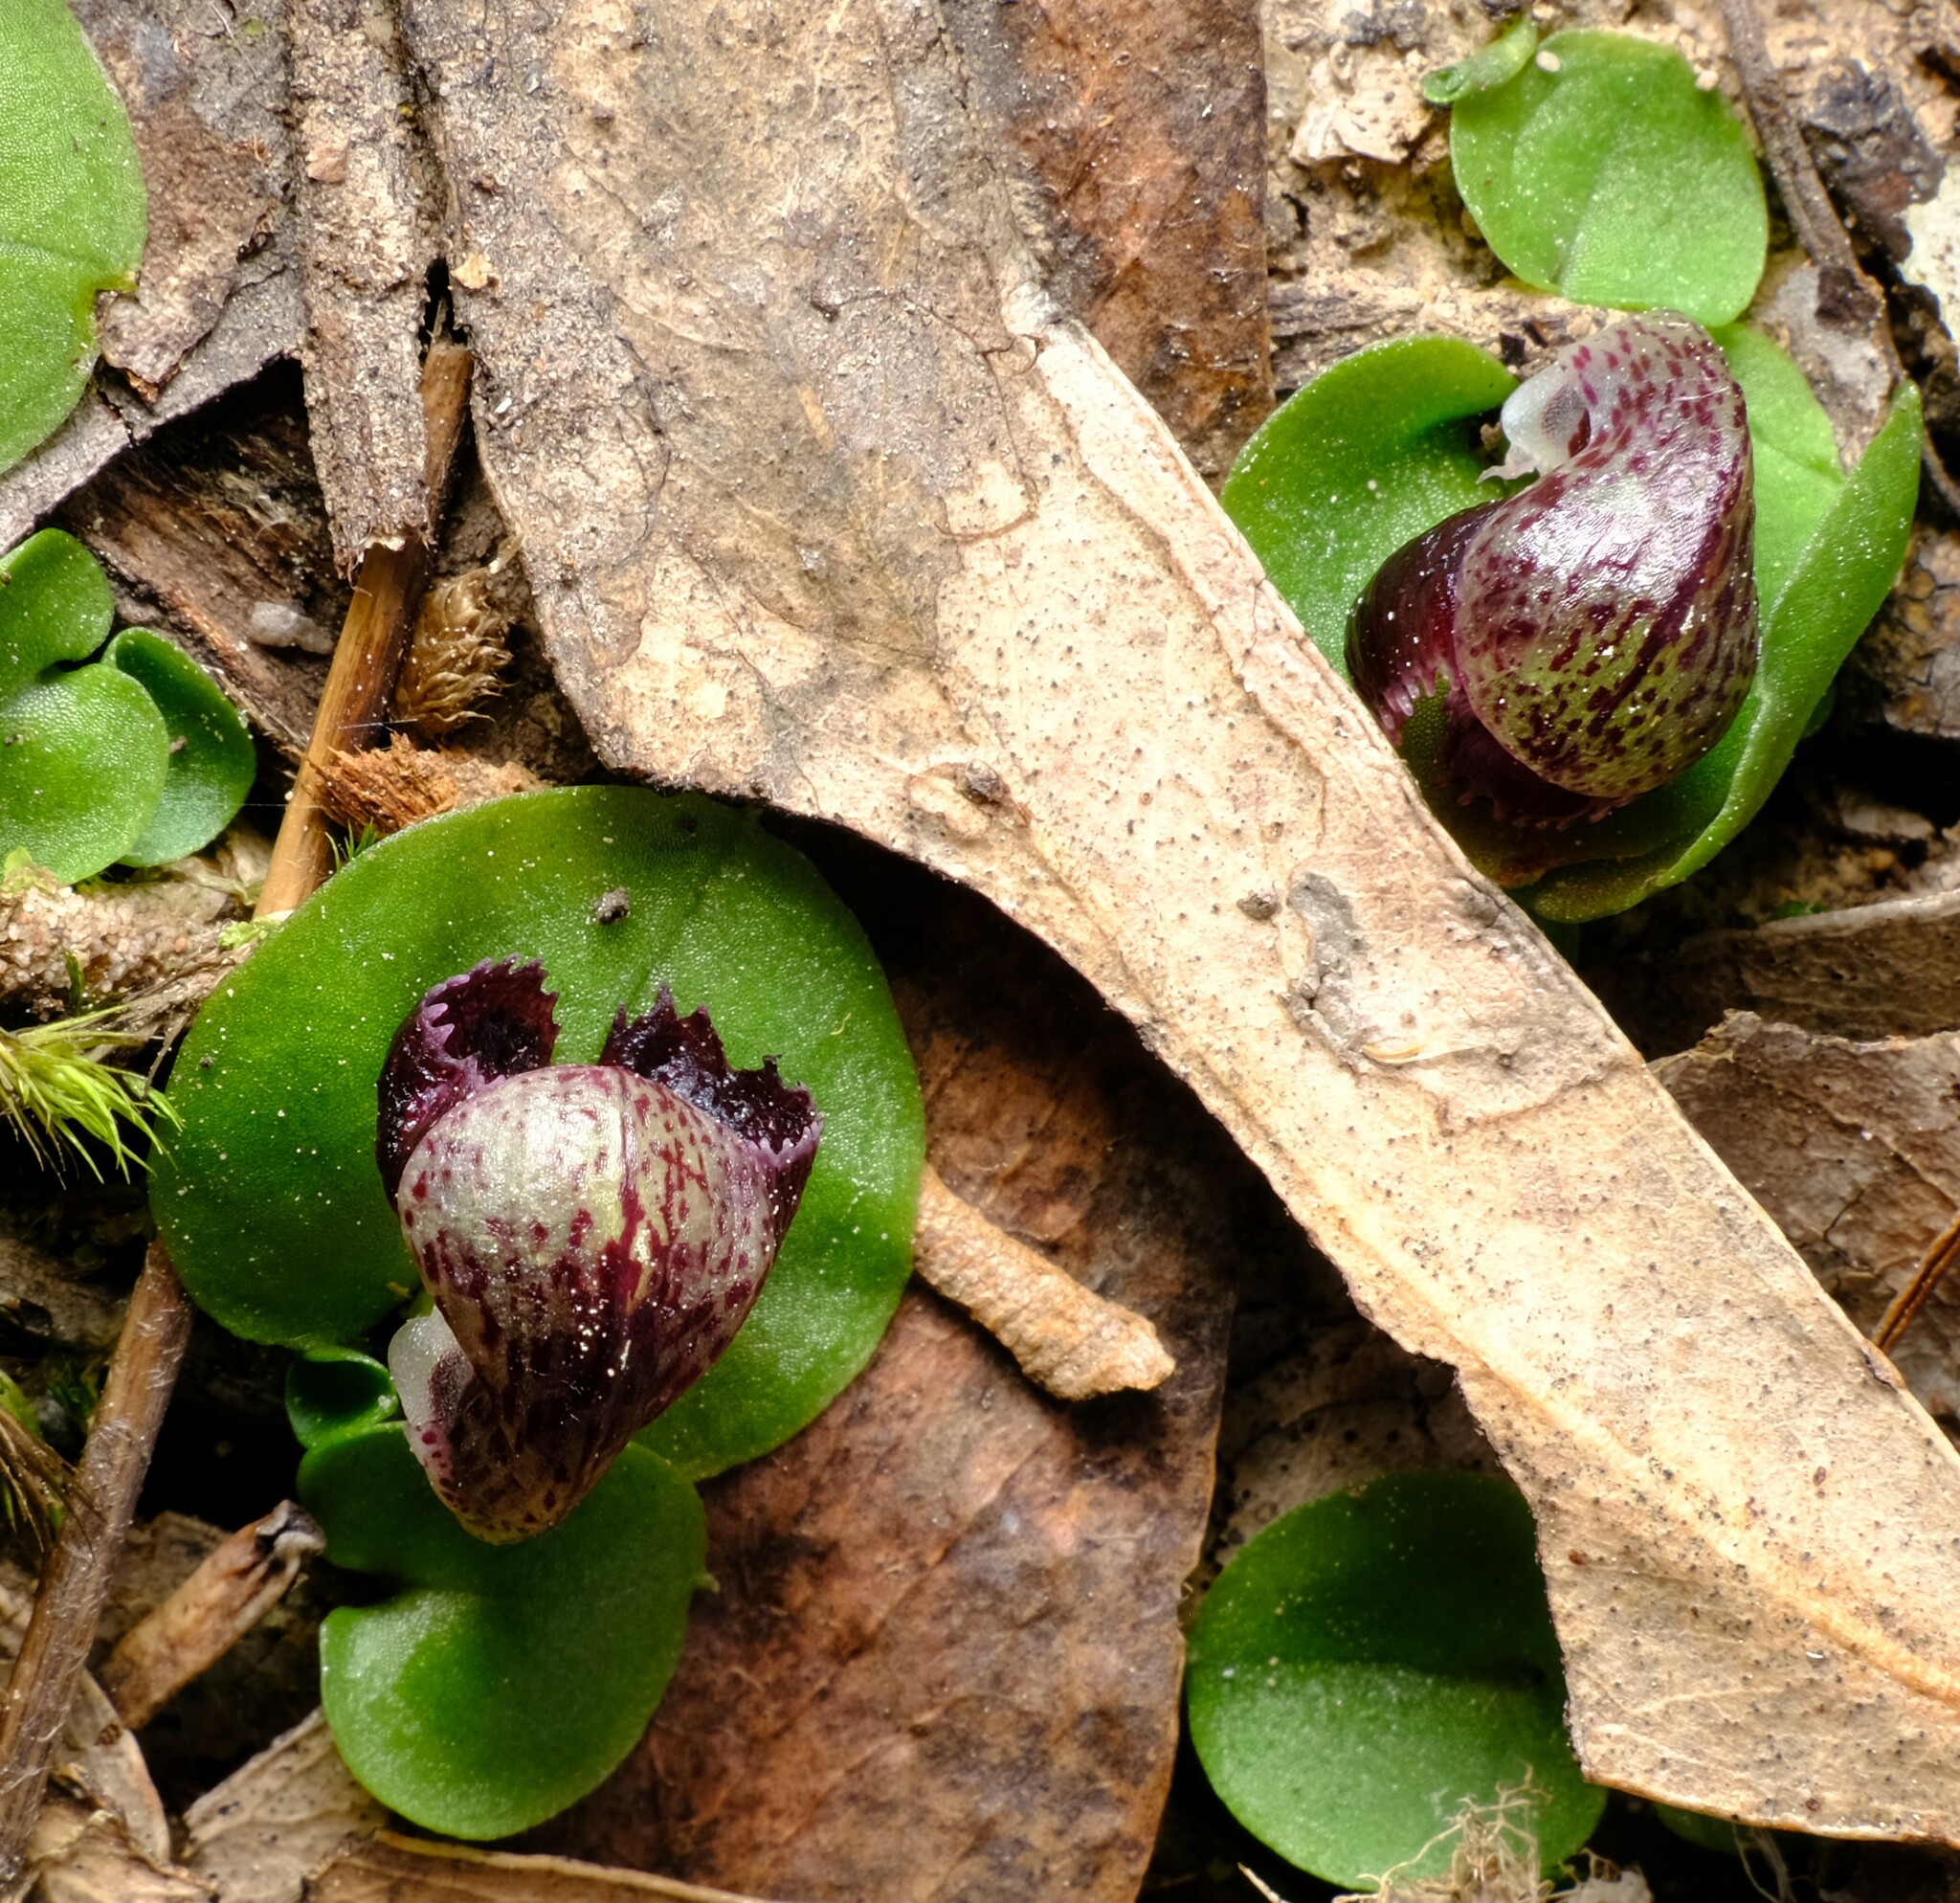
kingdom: Plantae
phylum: Tracheophyta
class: Liliopsida
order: Asparagales
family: Orchidaceae
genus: Corybas
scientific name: Corybas incurvus
